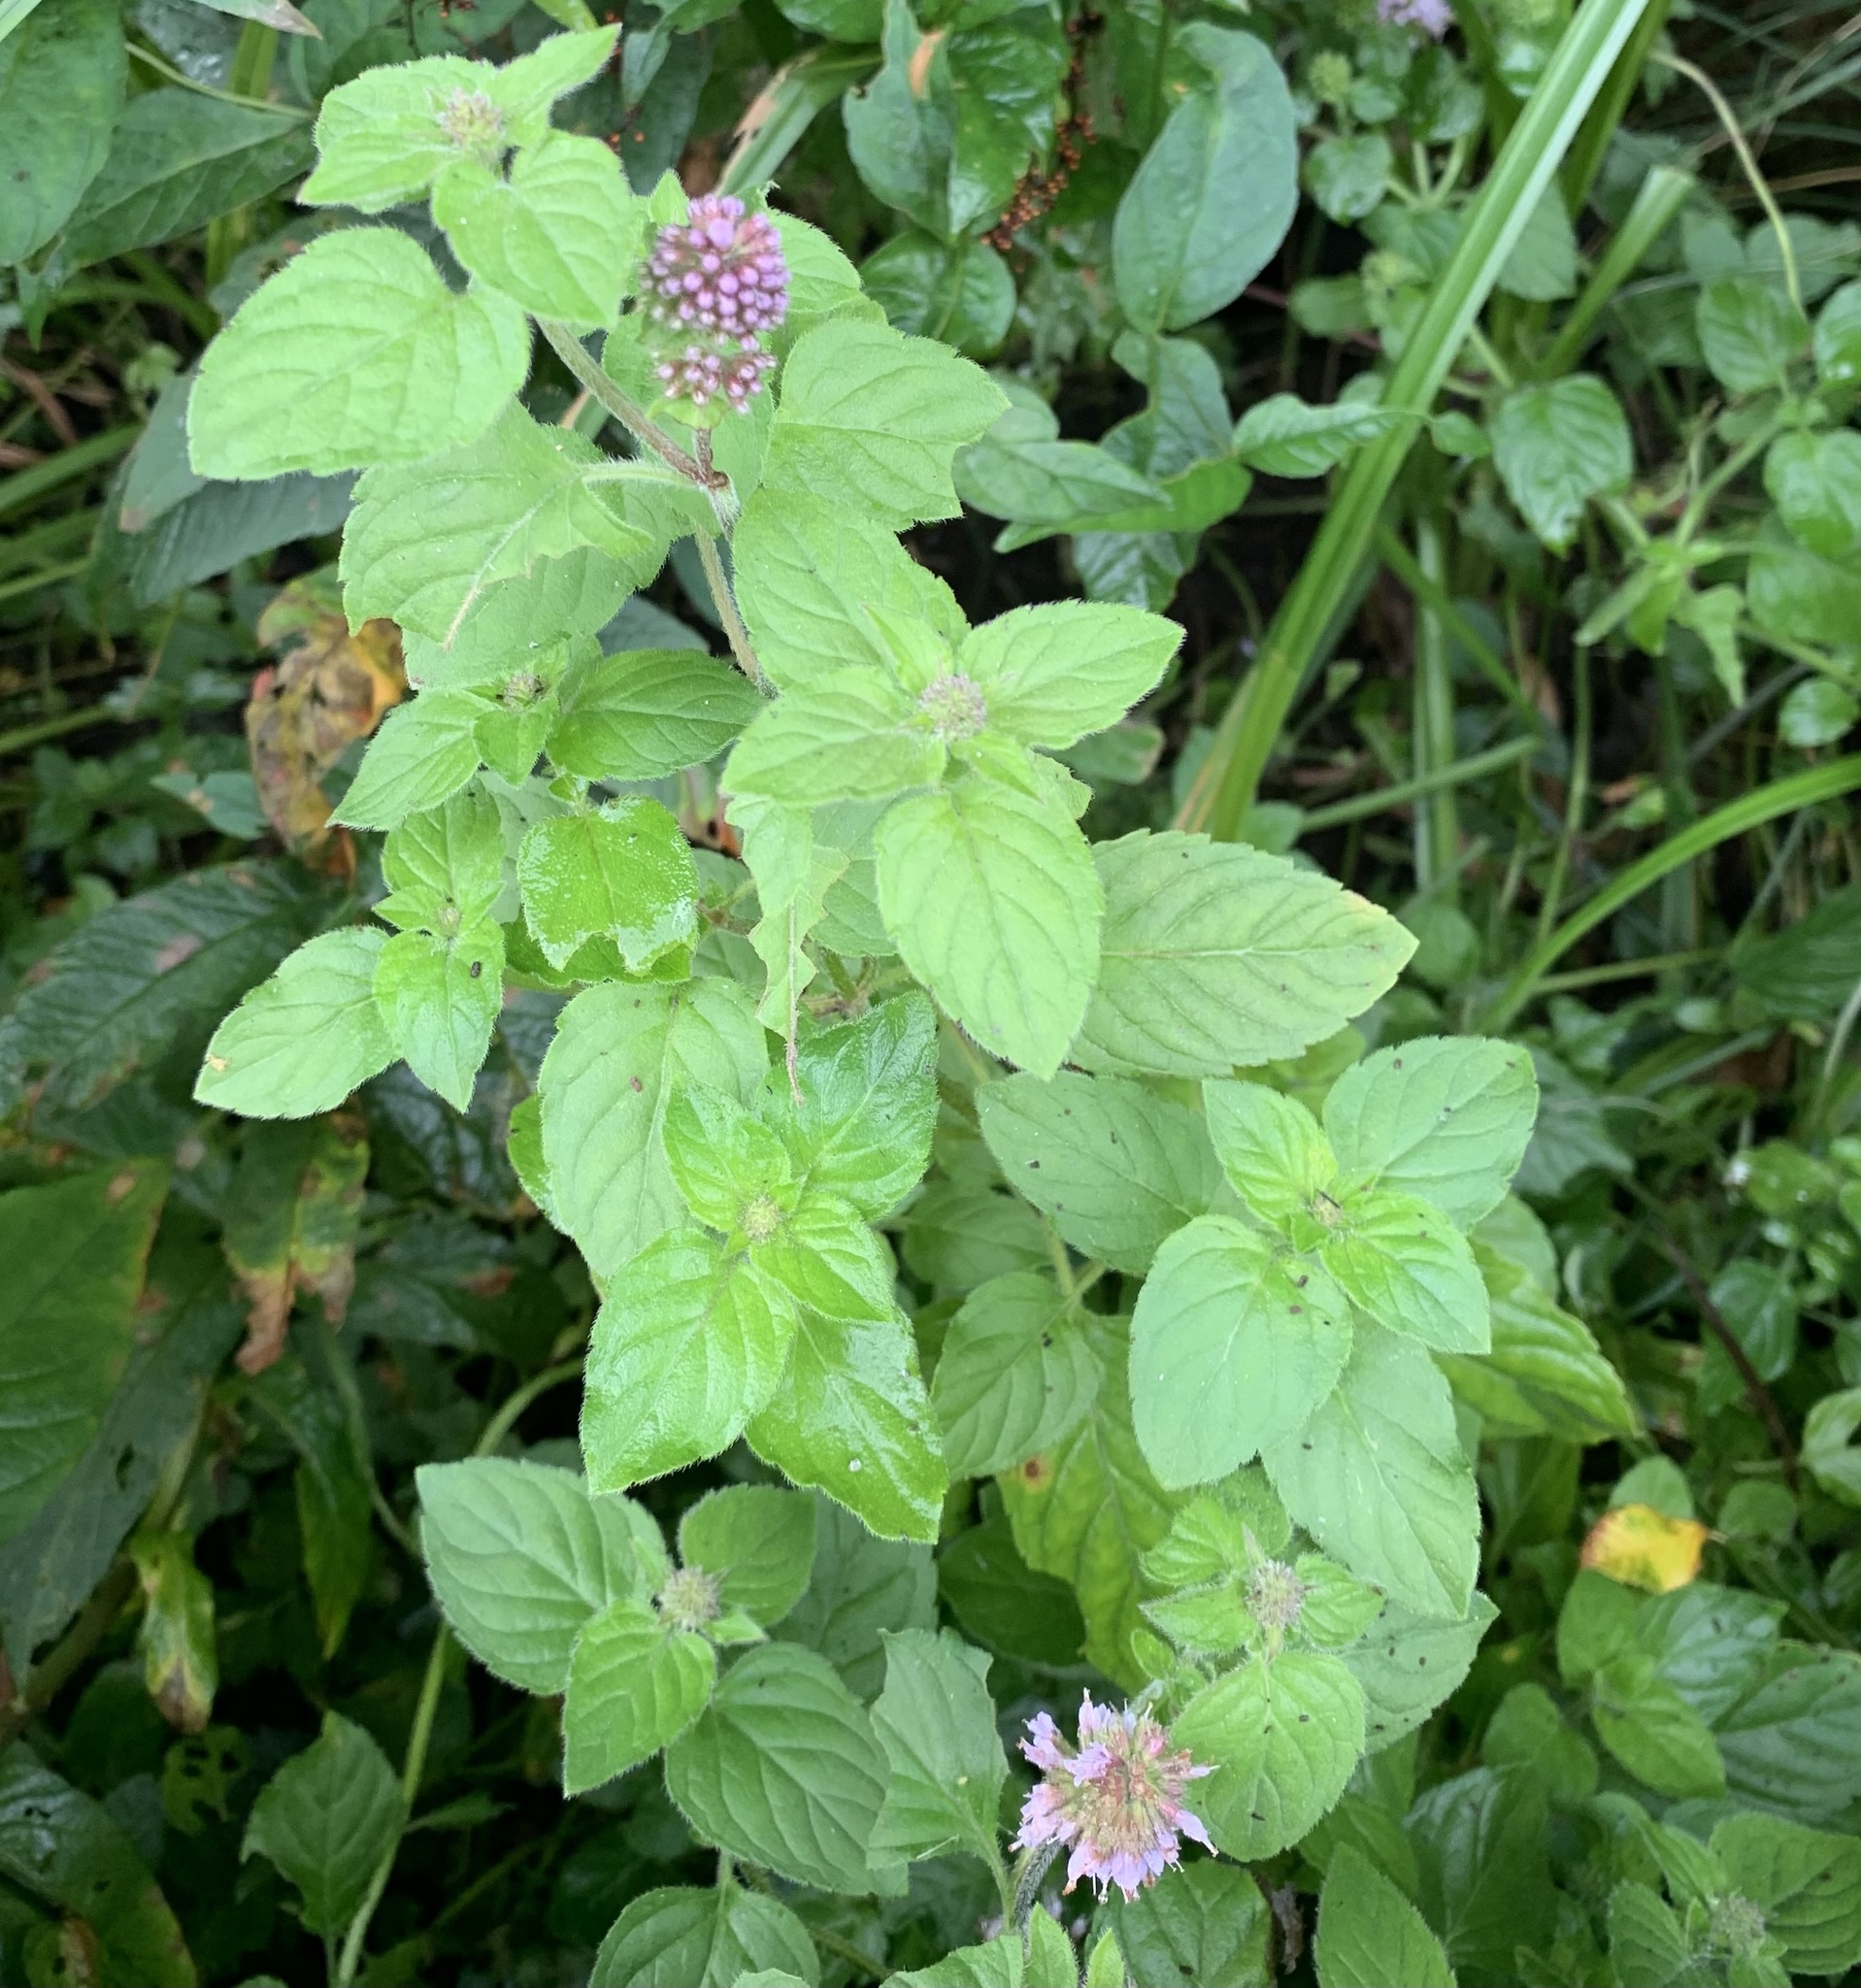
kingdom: Plantae
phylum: Tracheophyta
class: Magnoliopsida
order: Lamiales
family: Lamiaceae
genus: Mentha
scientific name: Mentha aquatica
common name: Water mint
